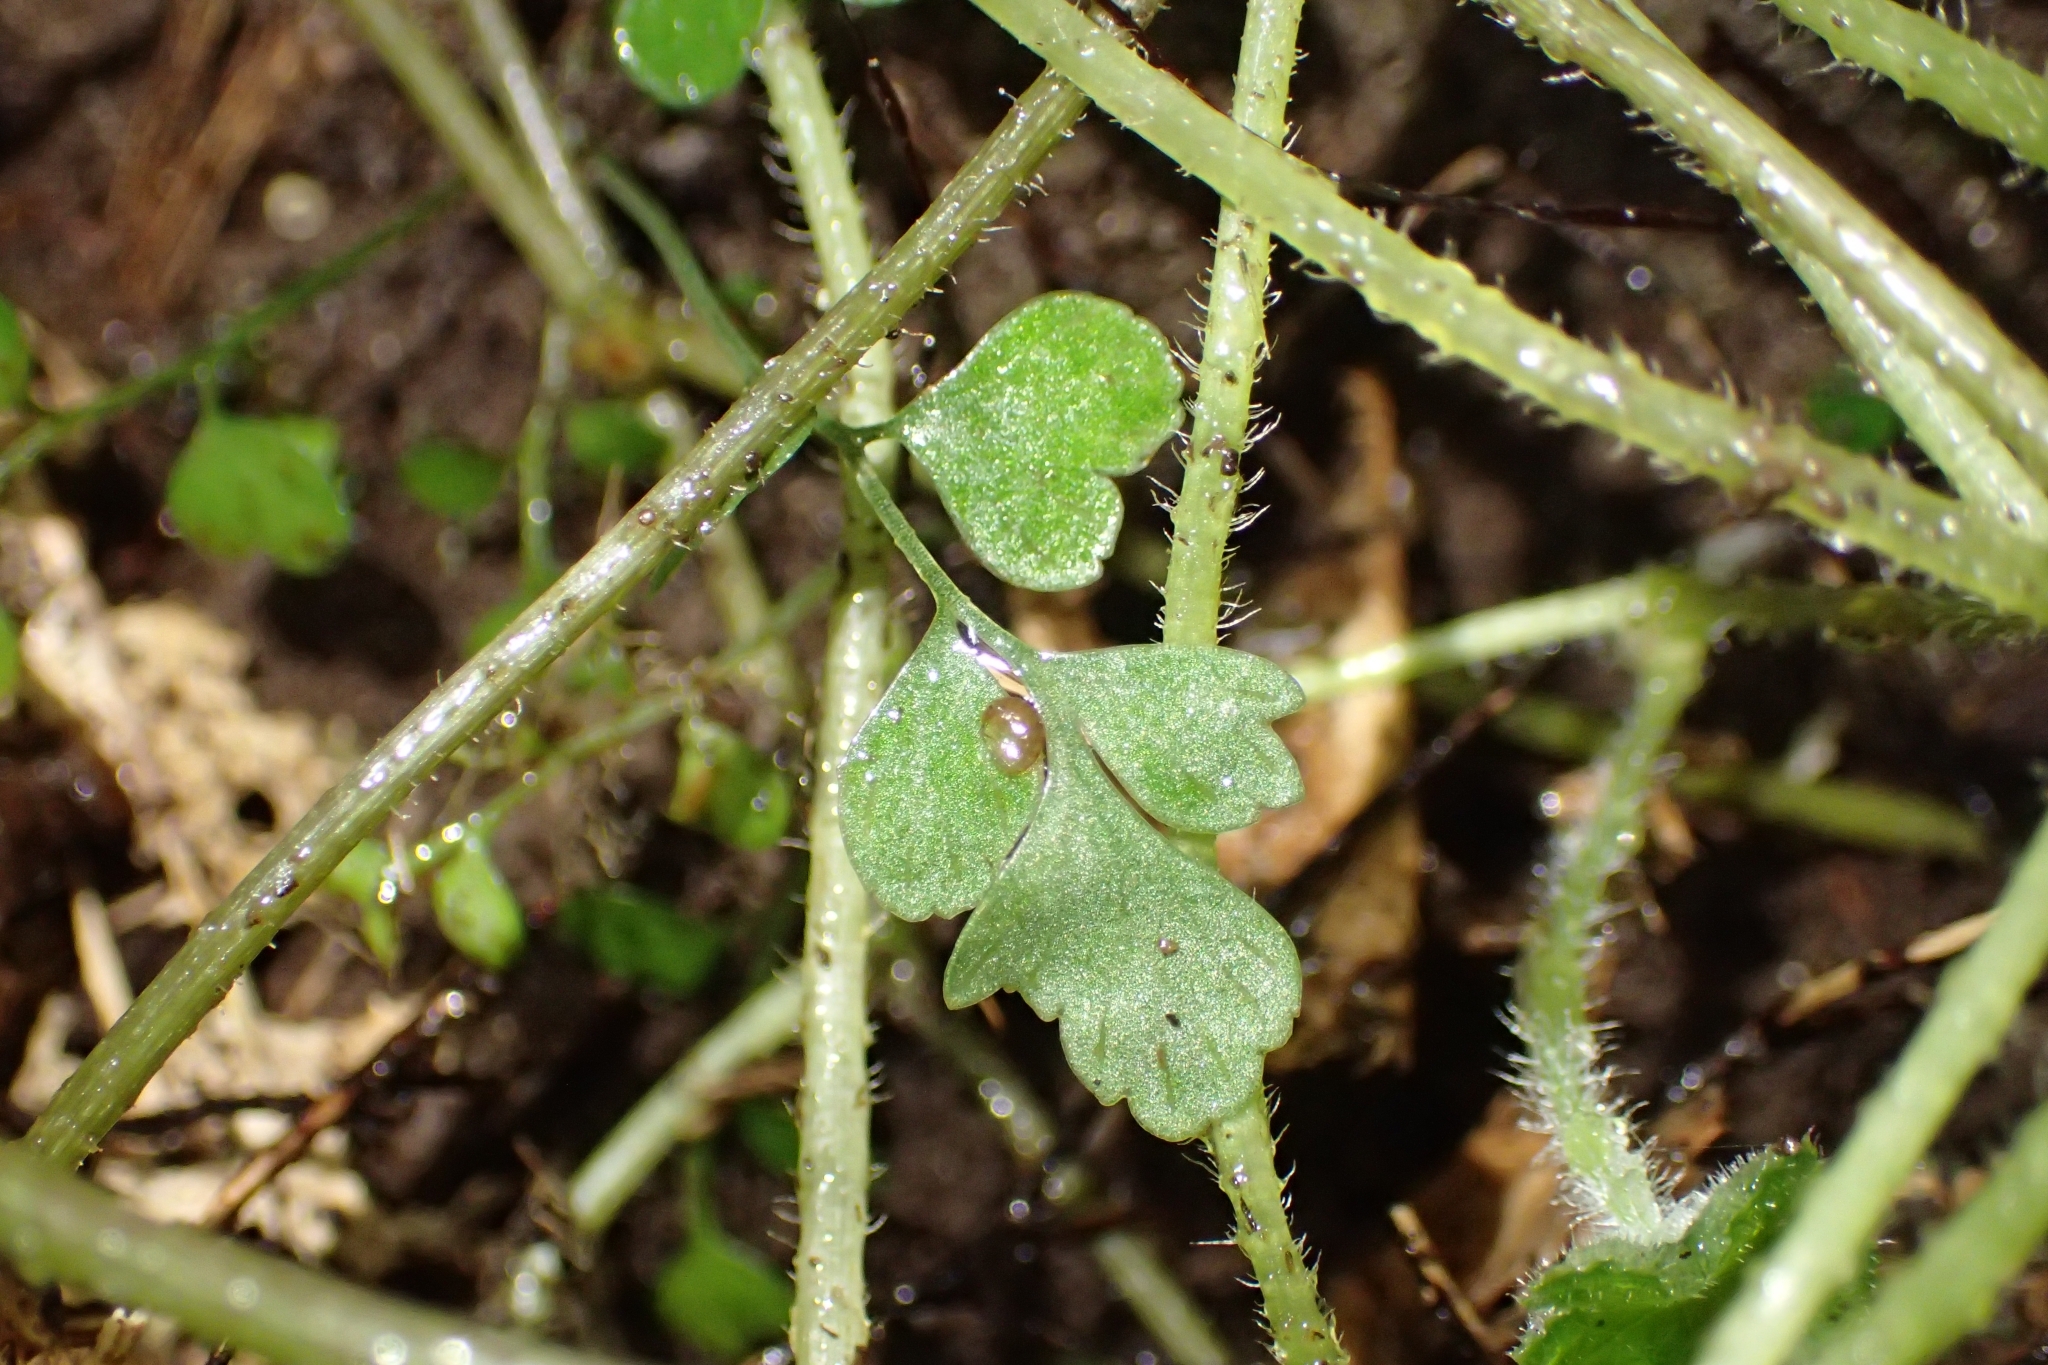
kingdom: Plantae
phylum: Tracheophyta
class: Polypodiopsida
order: Polypodiales
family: Aspleniaceae
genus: Asplenium
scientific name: Asplenium hookerianum
